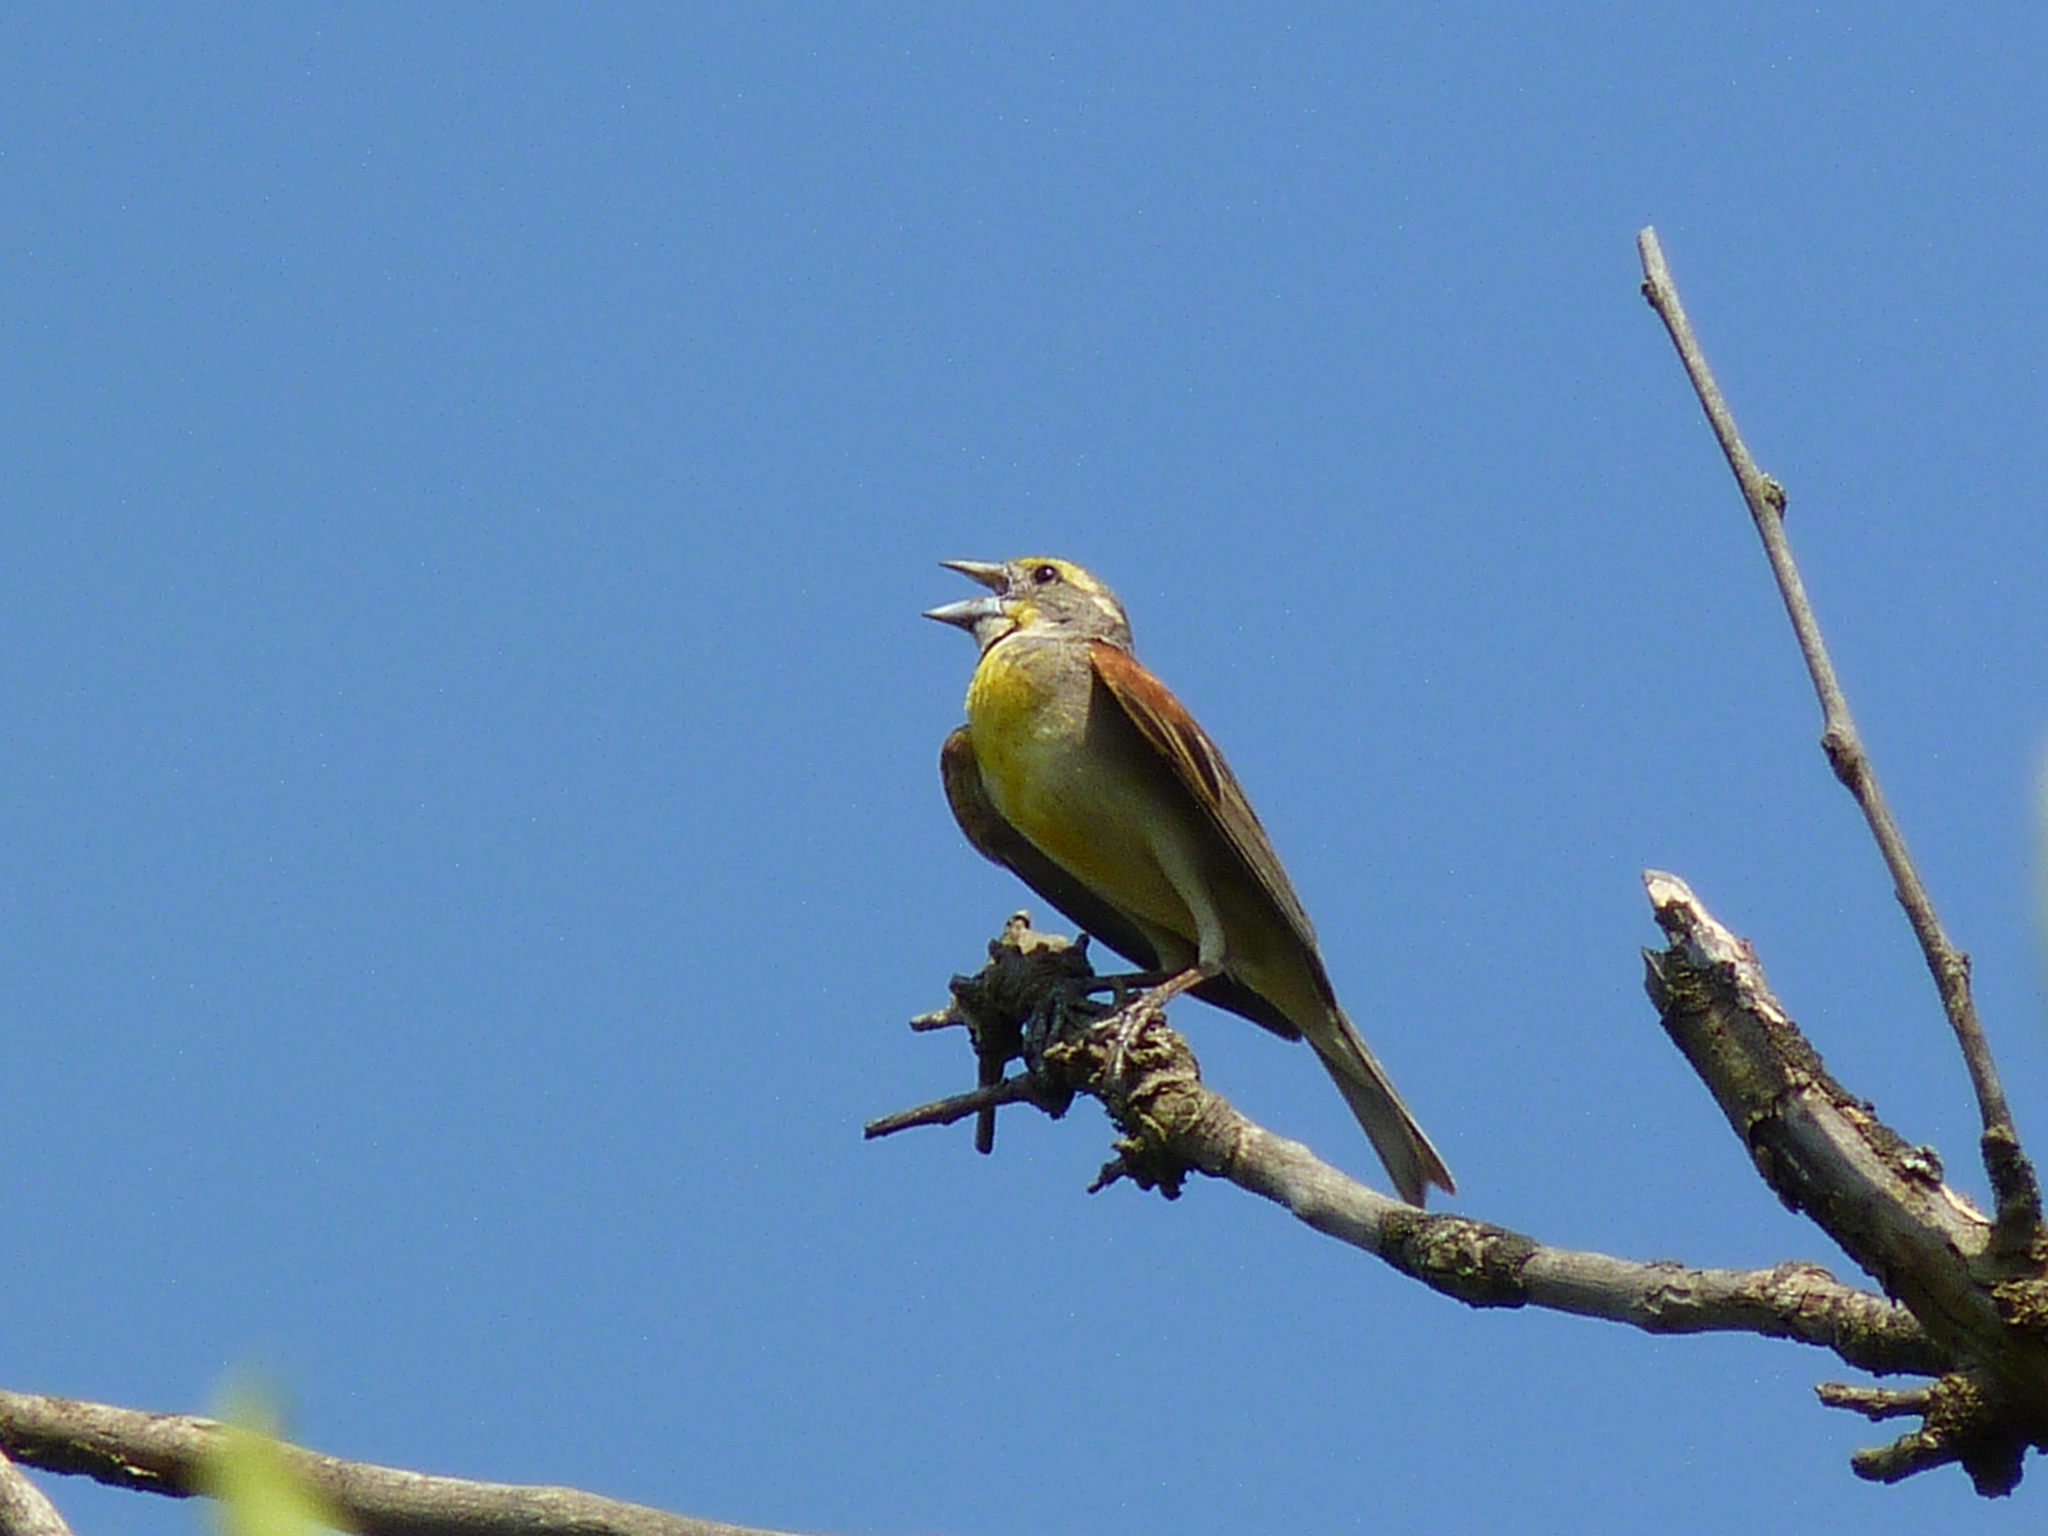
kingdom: Animalia
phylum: Chordata
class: Aves
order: Passeriformes
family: Cardinalidae
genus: Spiza
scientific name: Spiza americana
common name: Dickcissel
